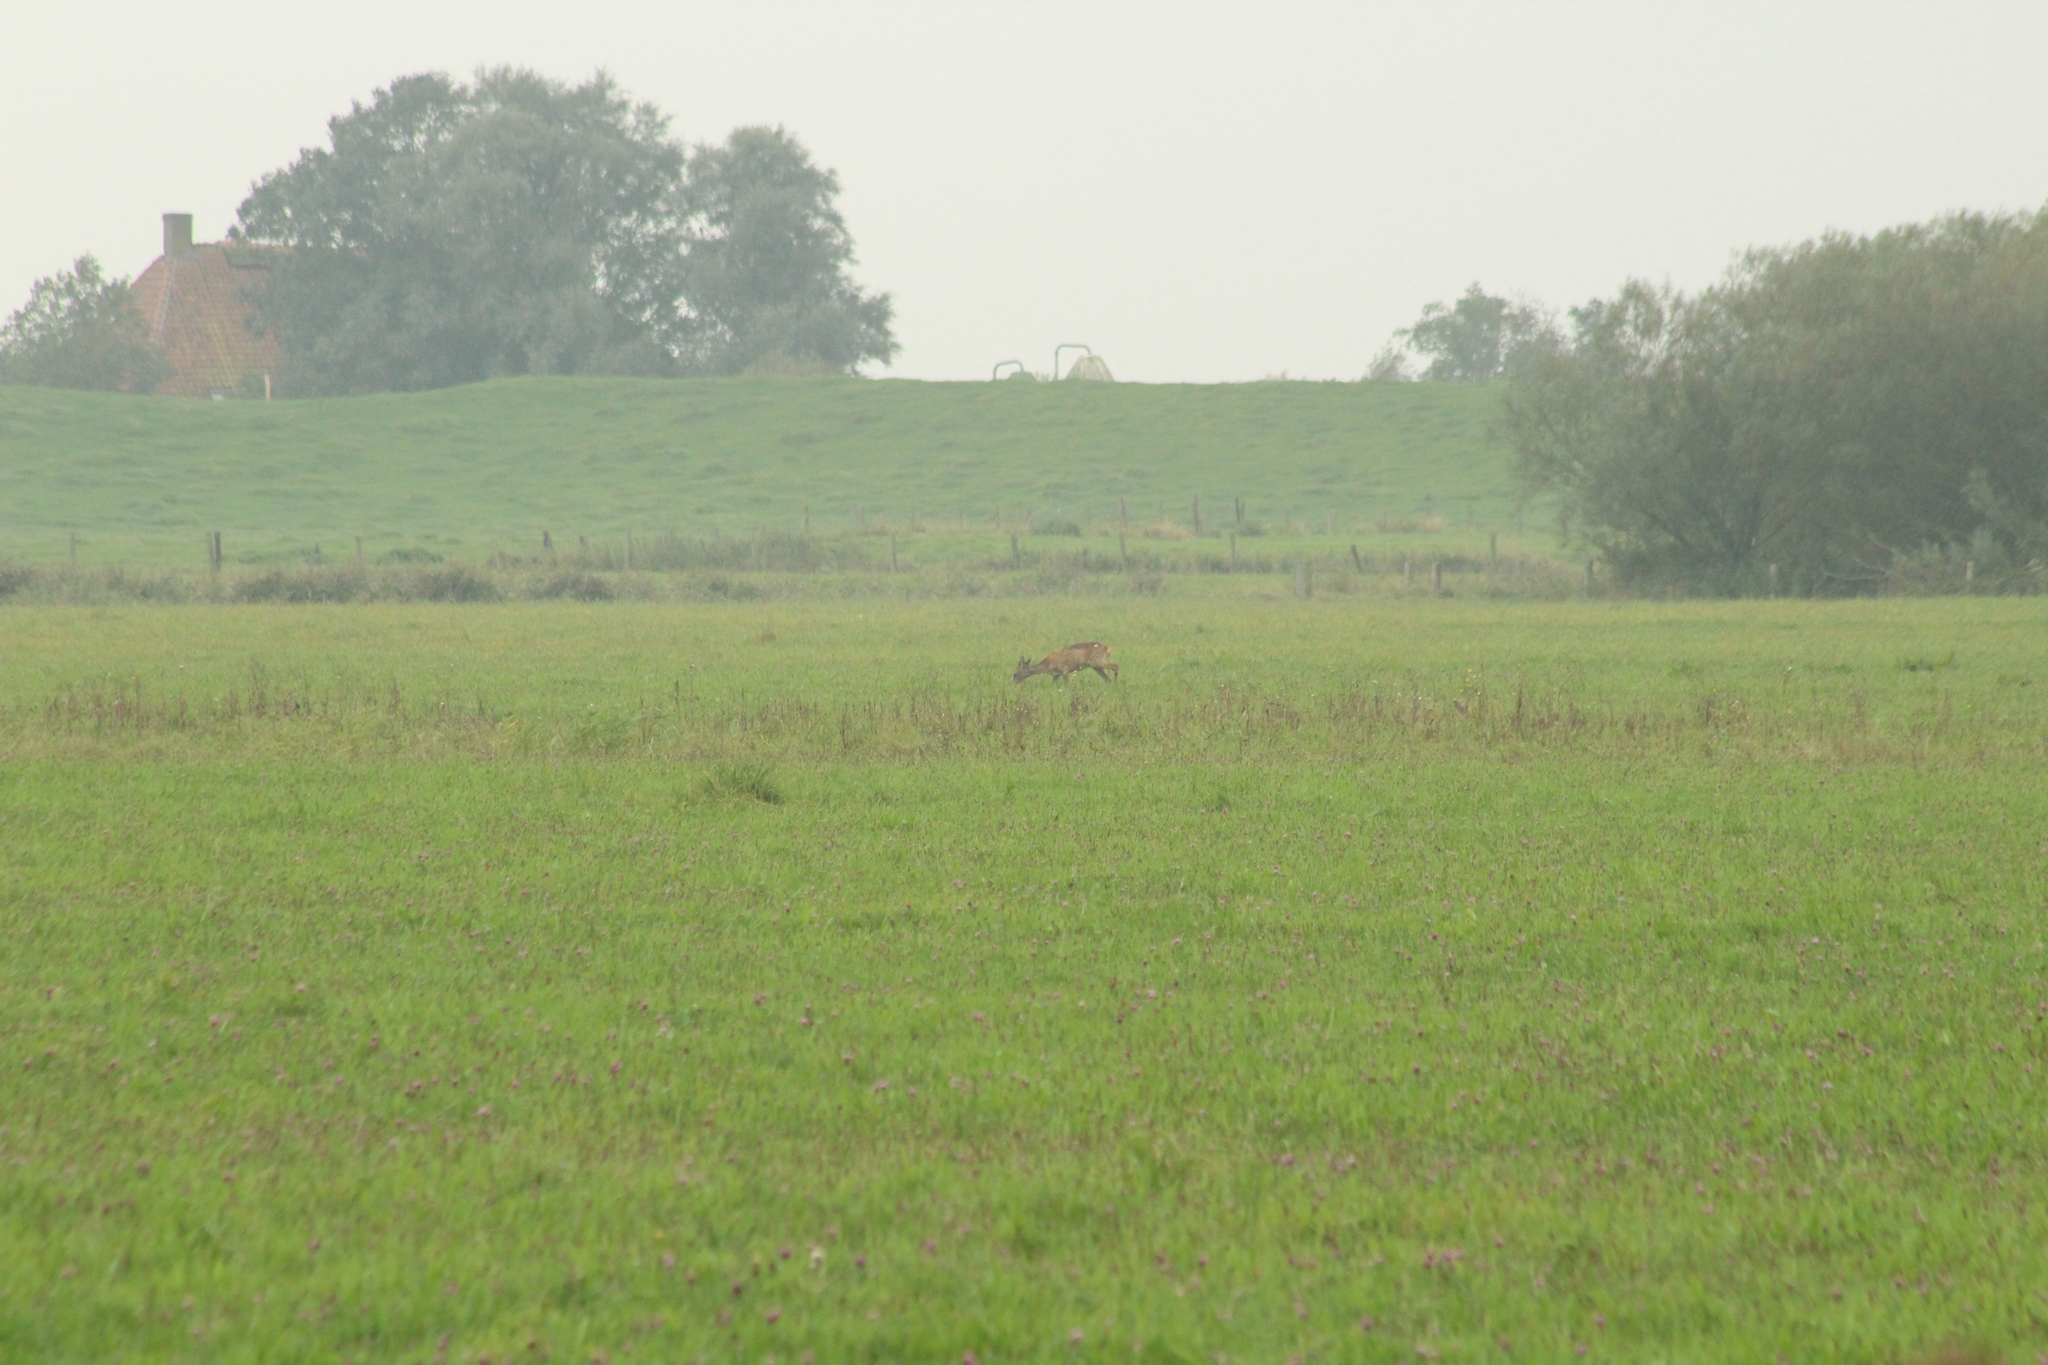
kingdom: Animalia
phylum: Chordata
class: Mammalia
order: Artiodactyla
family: Cervidae
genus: Capreolus
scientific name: Capreolus capreolus
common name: Western roe deer
